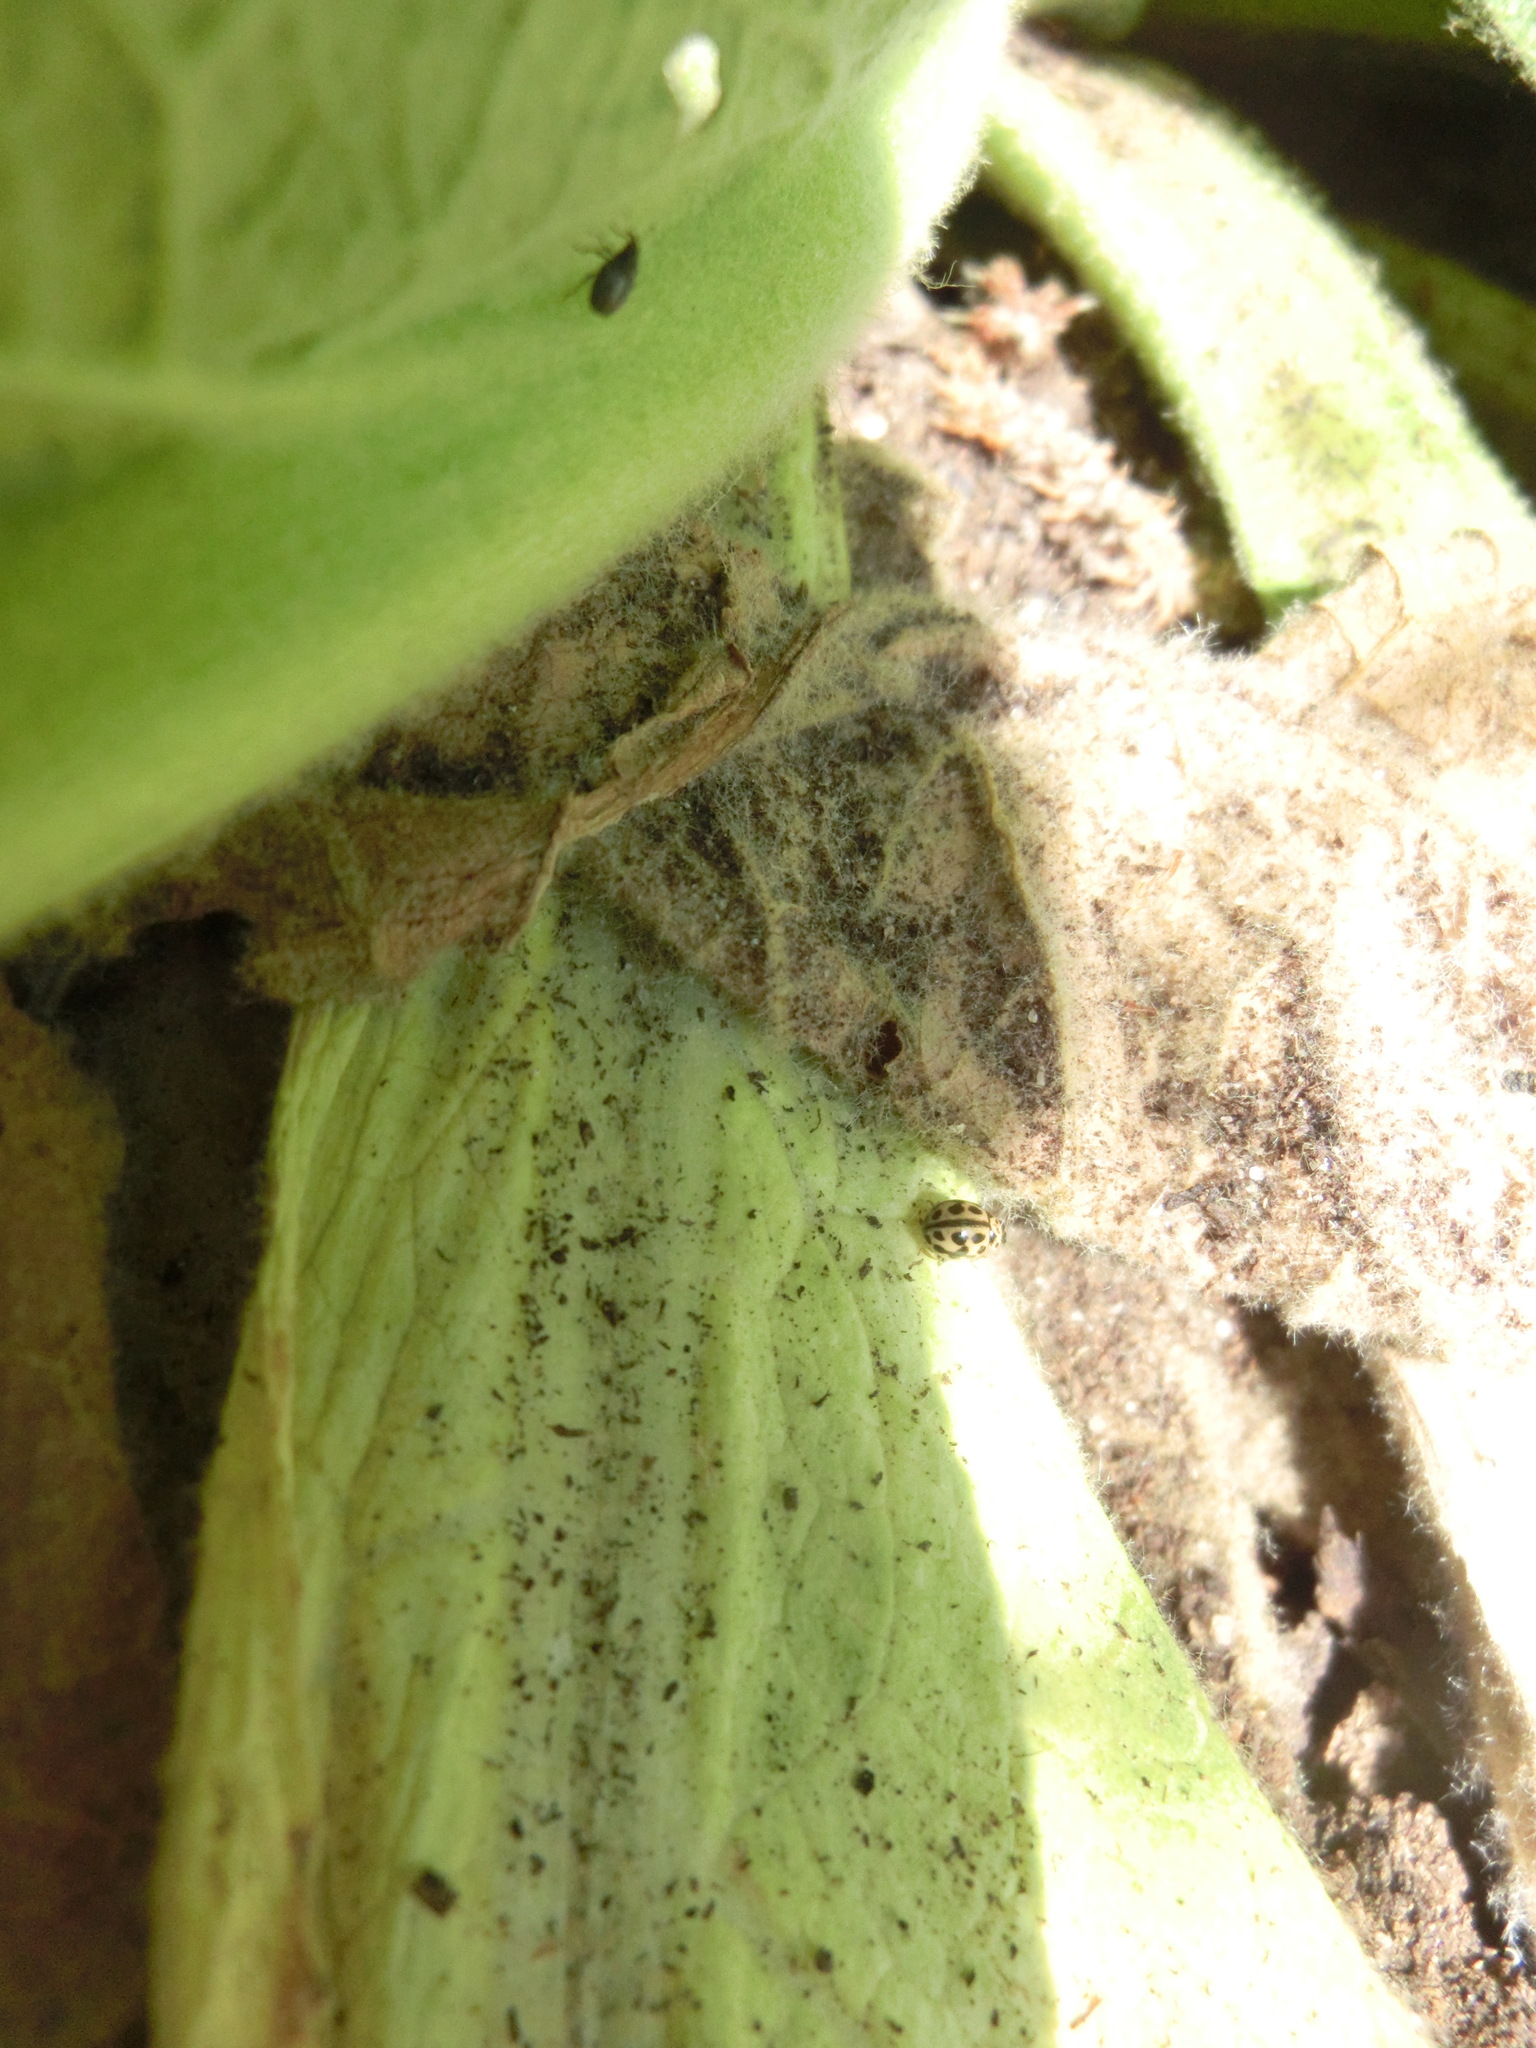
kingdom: Animalia
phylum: Arthropoda
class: Insecta
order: Coleoptera
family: Coccinellidae
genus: Tytthaspis
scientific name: Tytthaspis sedecimpunctata
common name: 16-spot ladybird
